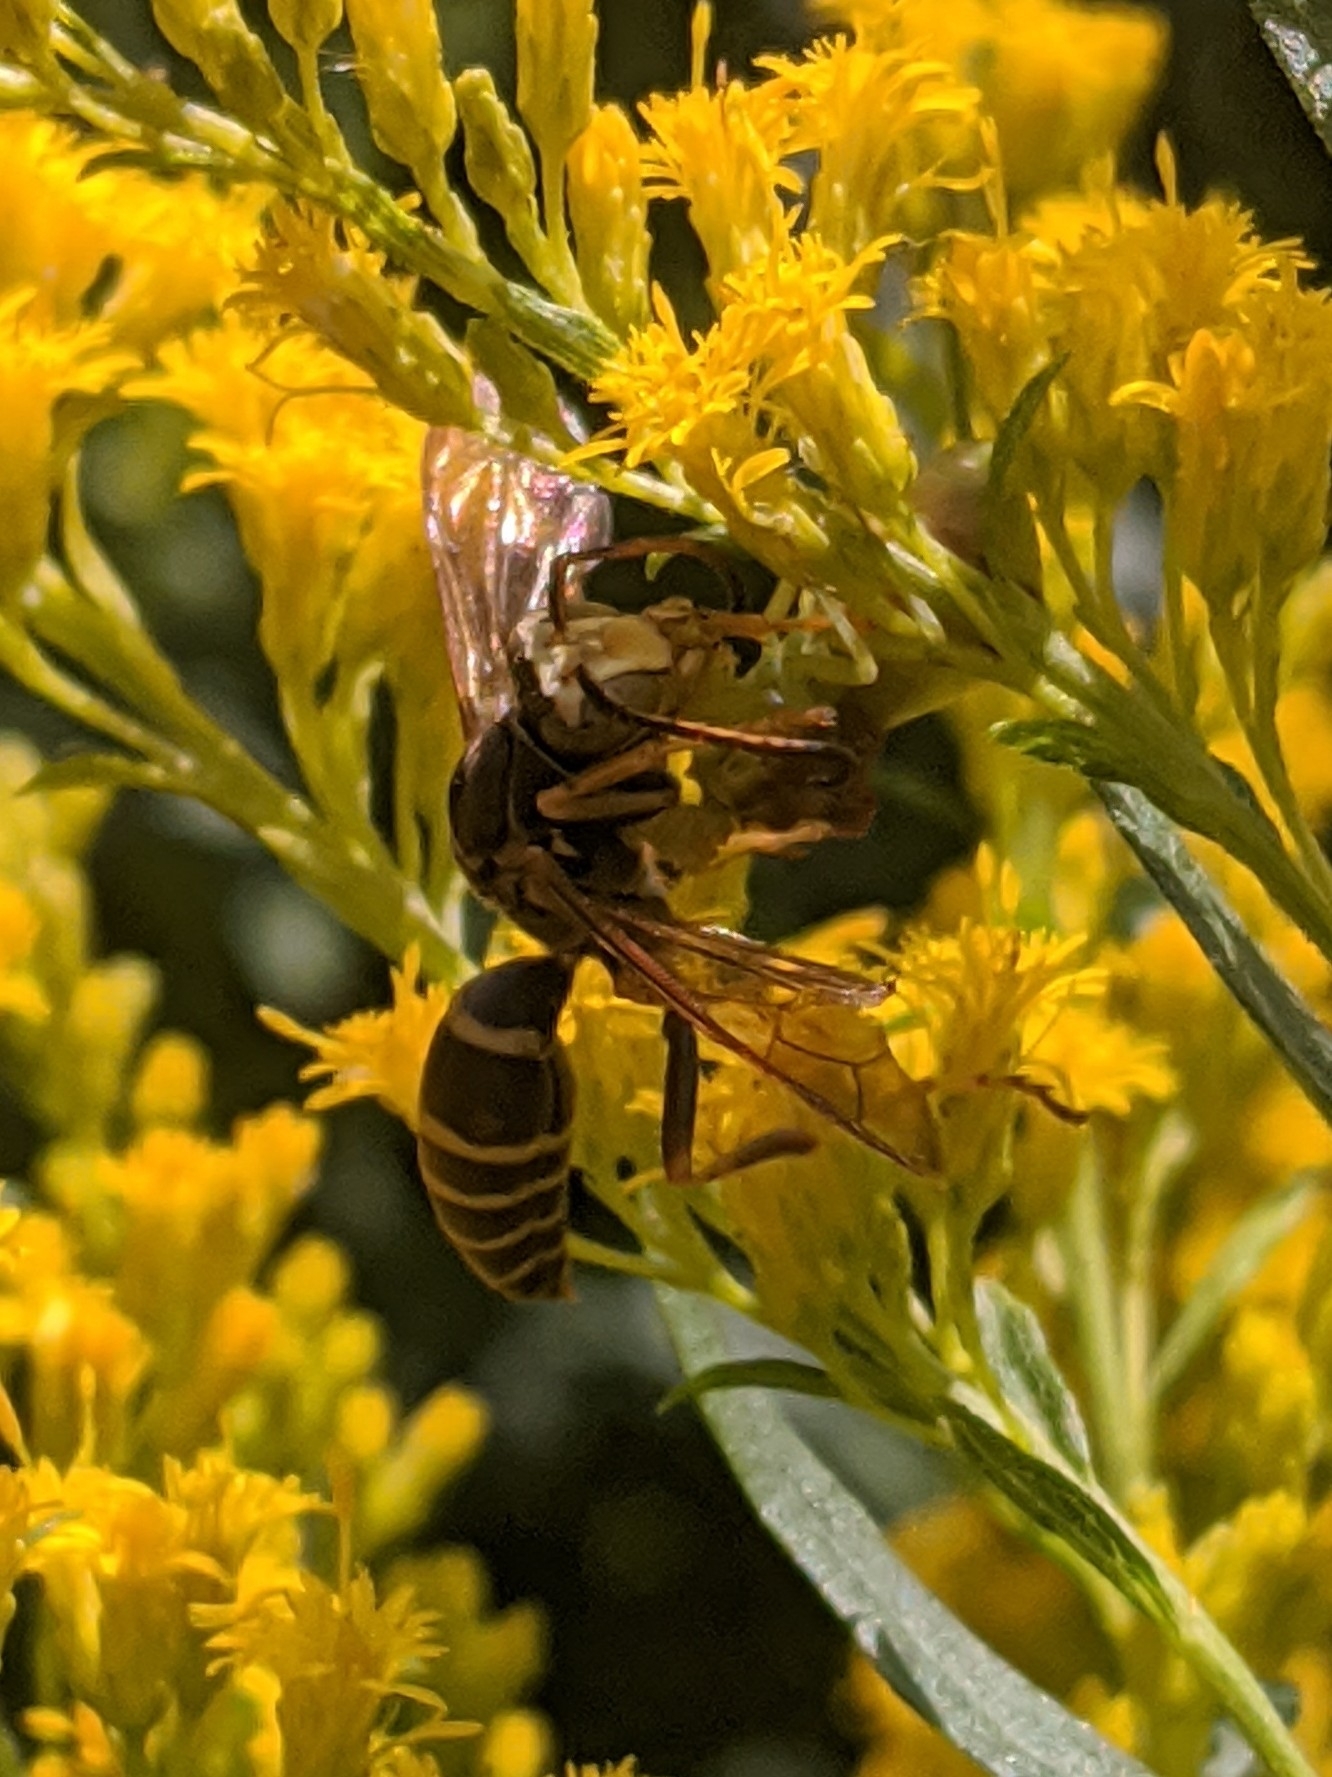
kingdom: Animalia
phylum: Arthropoda
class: Insecta
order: Hymenoptera
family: Eumenidae
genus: Polistes
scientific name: Polistes fuscatus
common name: Dark paper wasp
